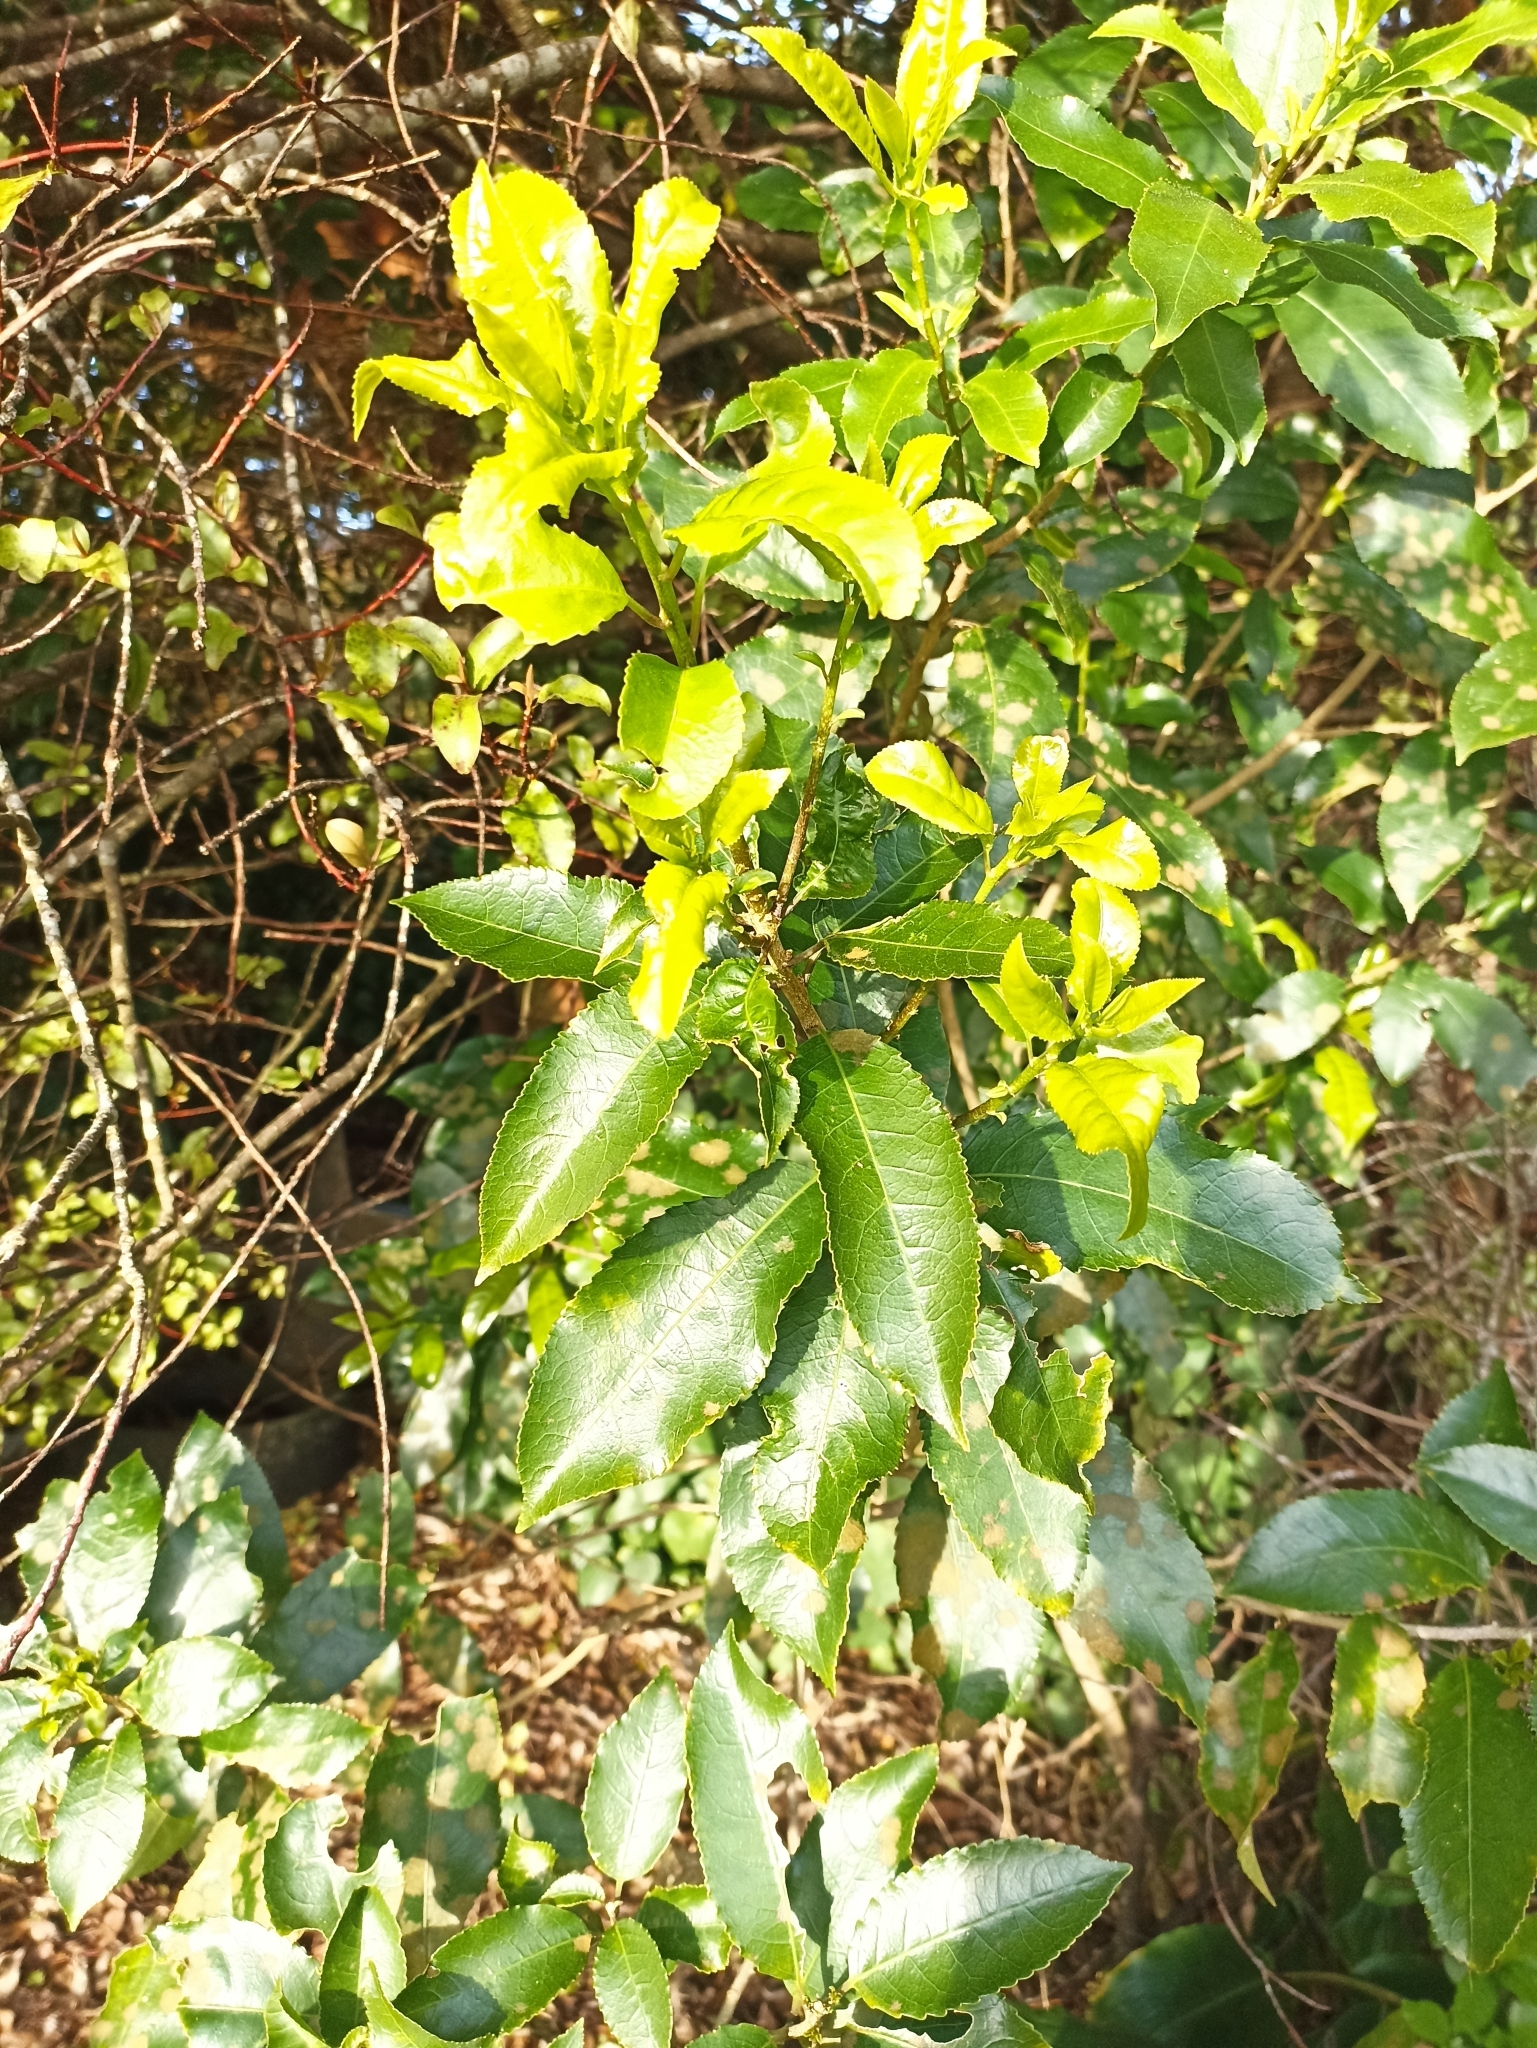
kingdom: Plantae
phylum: Tracheophyta
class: Magnoliopsida
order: Malpighiales
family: Violaceae
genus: Melicytus
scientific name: Melicytus ramiflorus
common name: Mahoe
